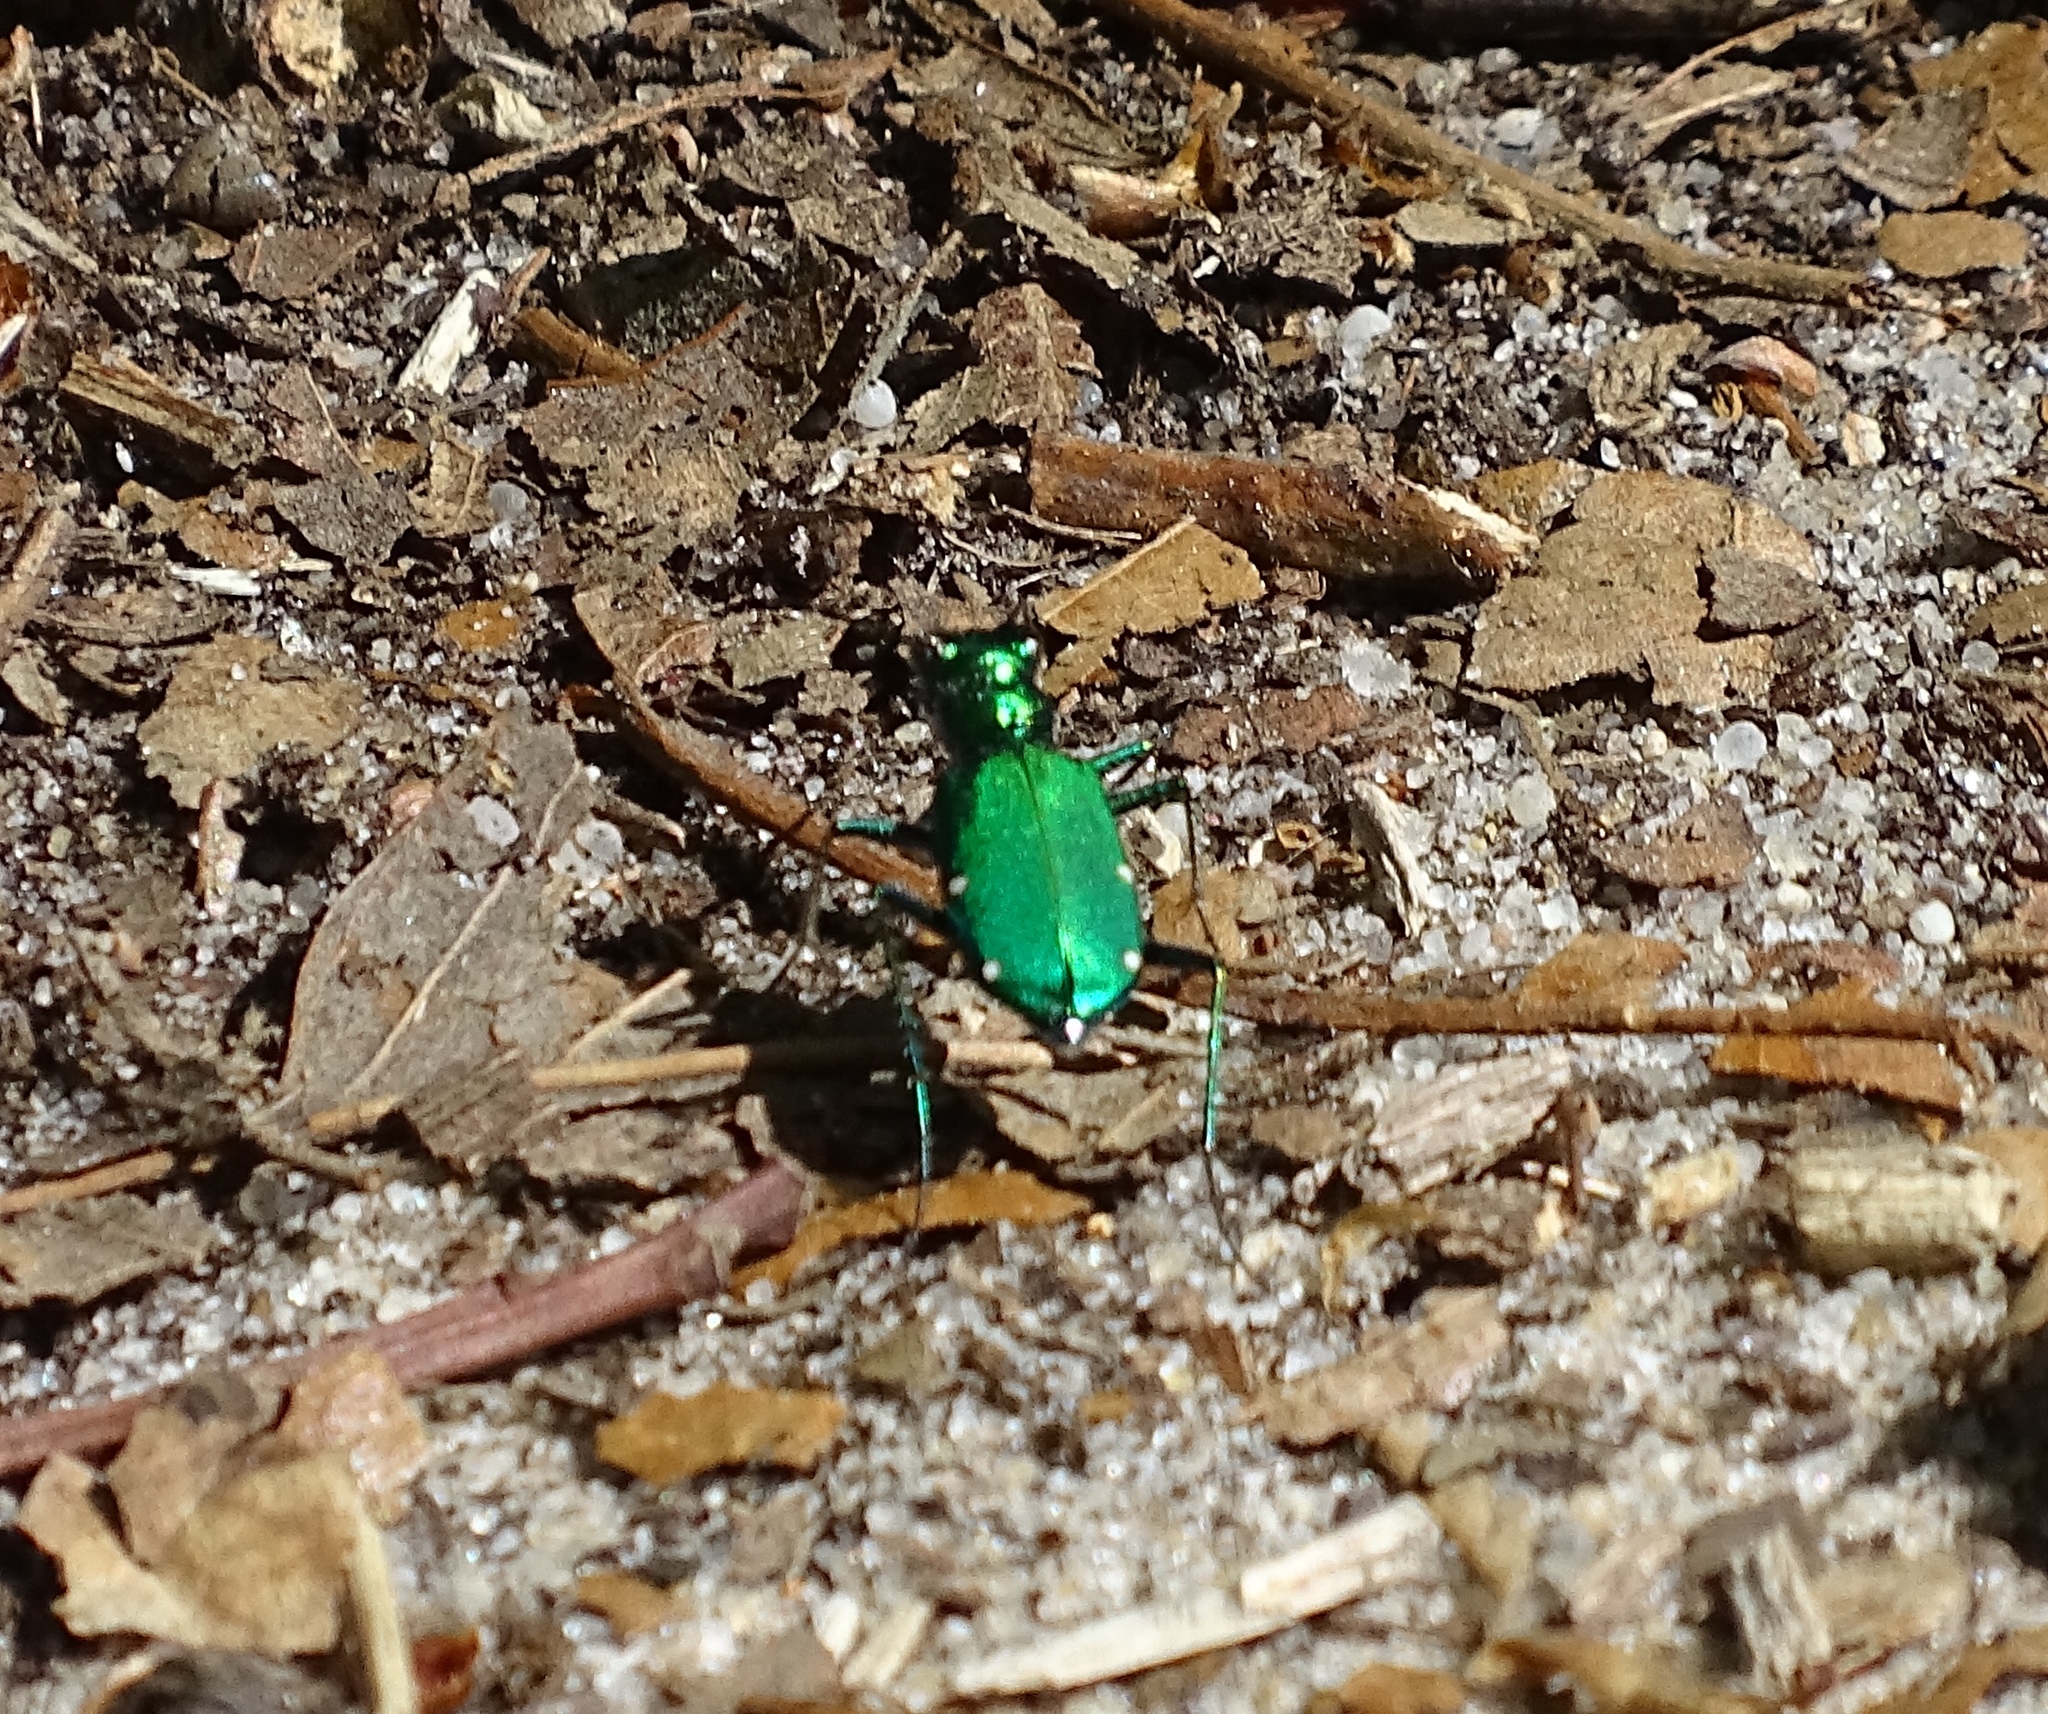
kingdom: Animalia
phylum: Arthropoda
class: Insecta
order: Coleoptera
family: Carabidae
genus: Cicindela
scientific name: Cicindela sexguttata
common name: Six-spotted tiger beetle
